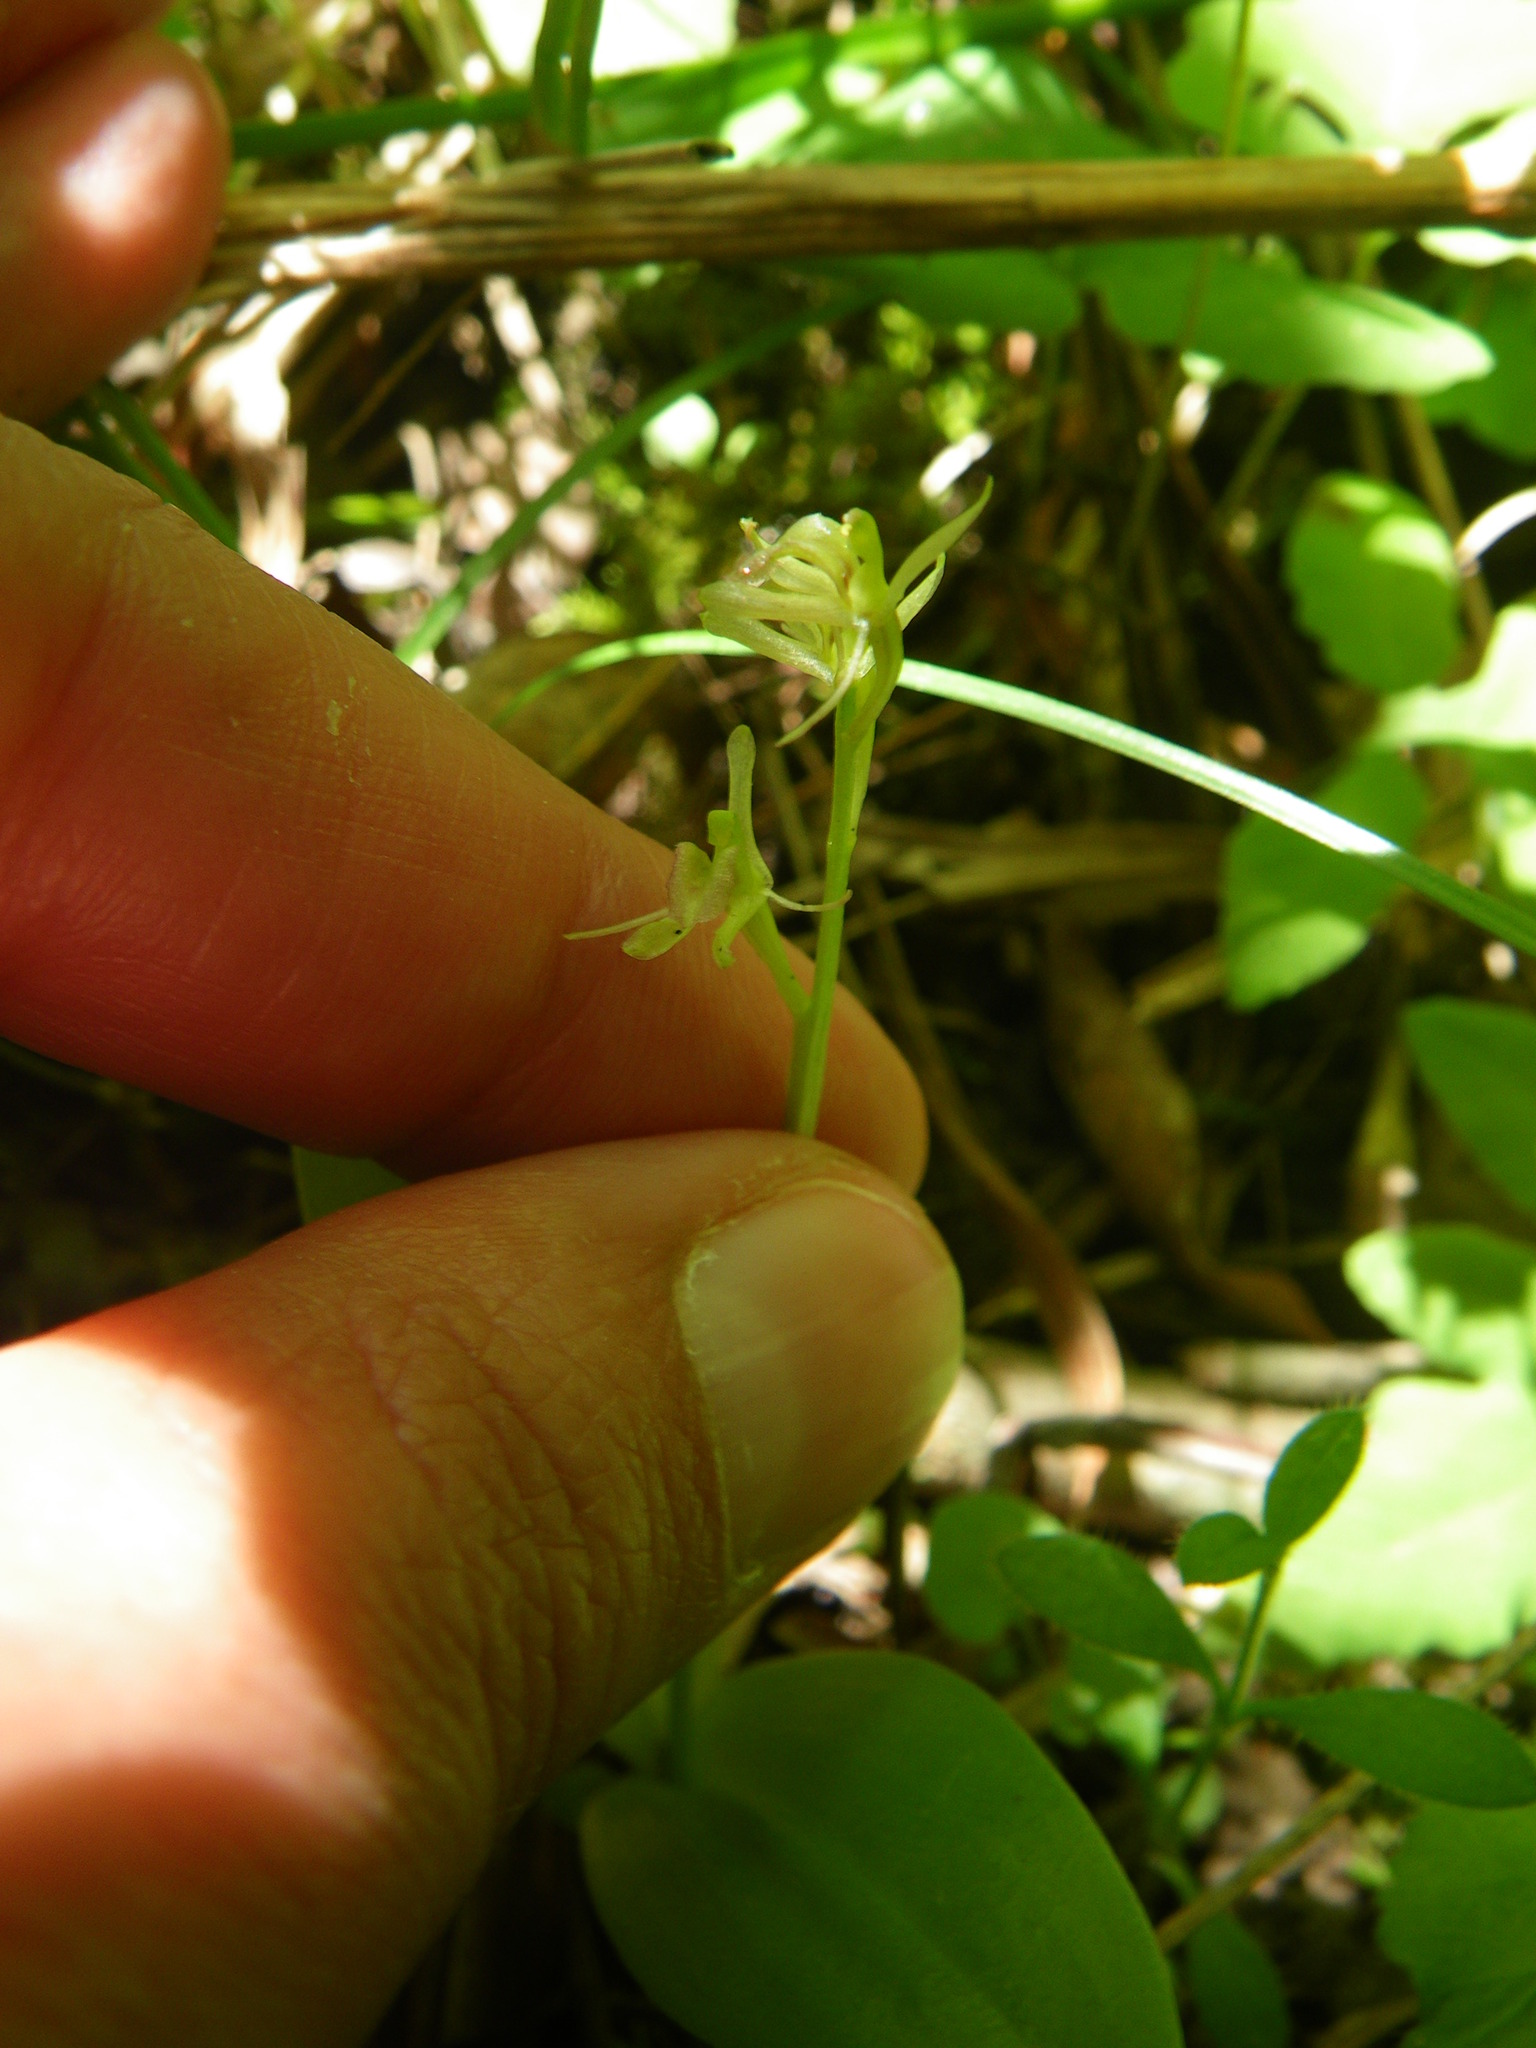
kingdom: Animalia
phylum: Arthropoda
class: Insecta
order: Coleoptera
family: Curculionidae
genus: Liparis
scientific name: Liparis loeselii
